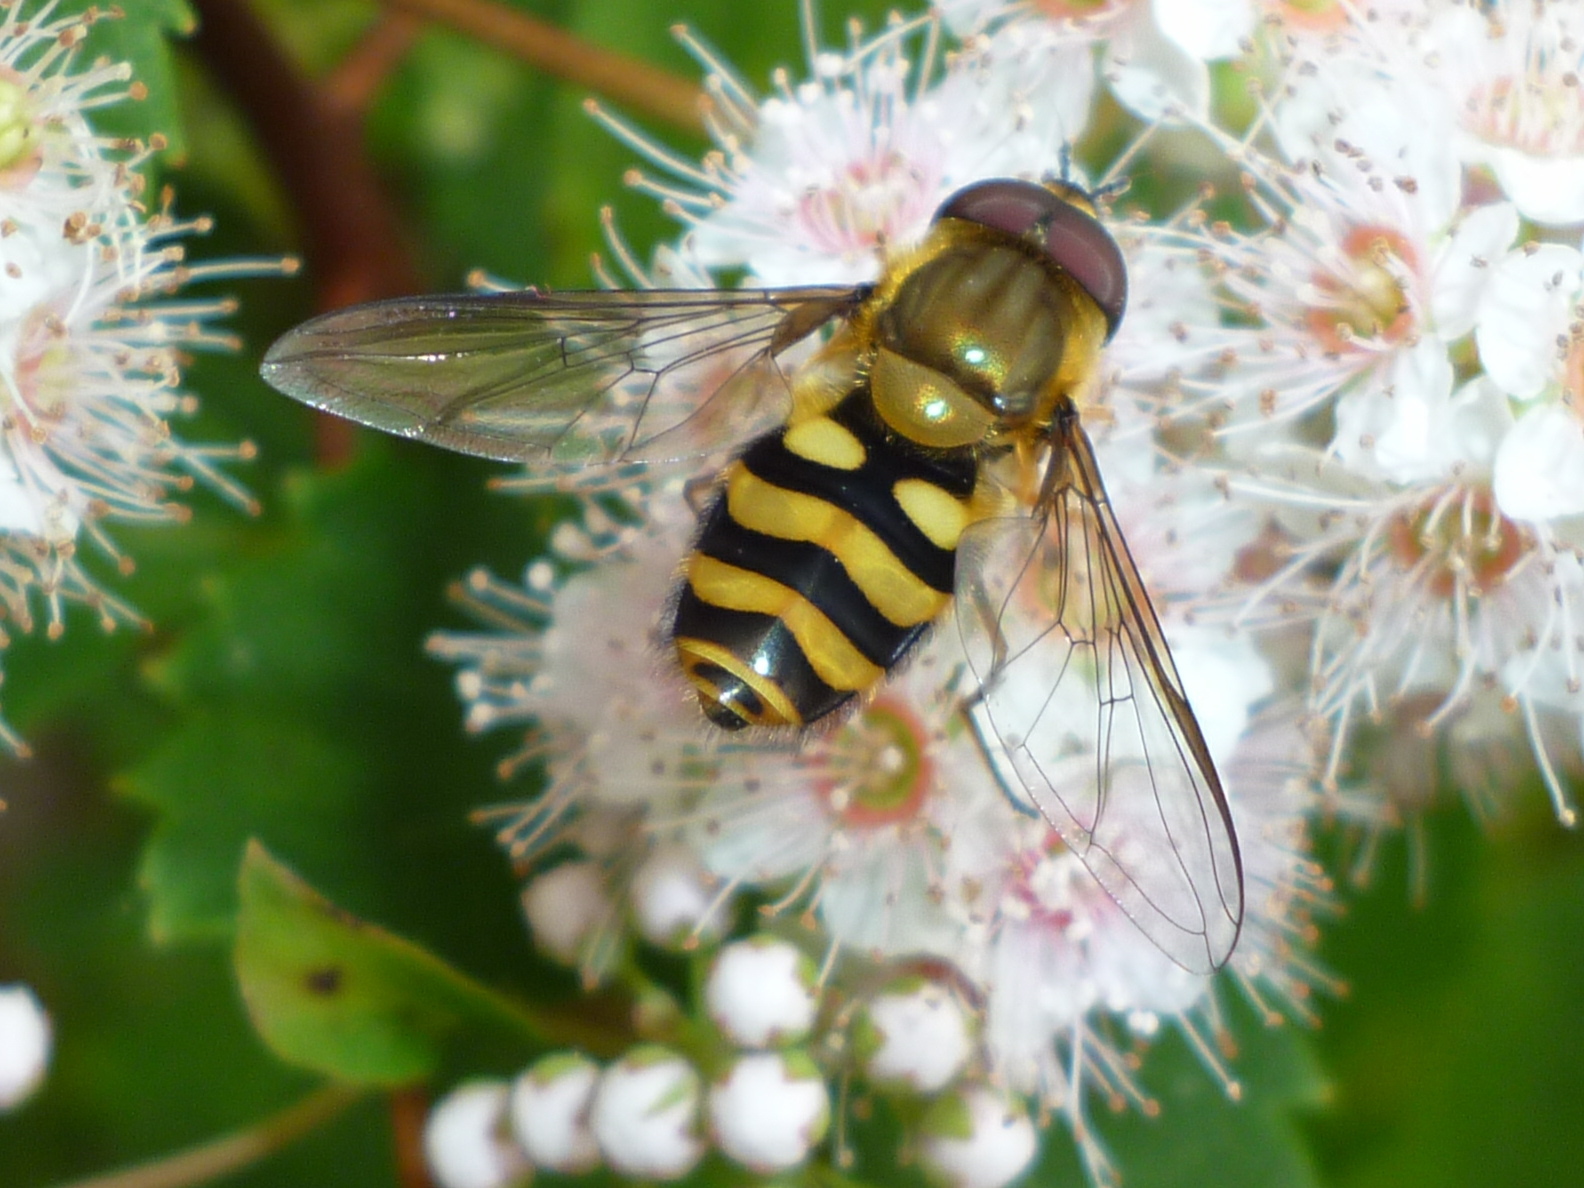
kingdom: Animalia
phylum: Arthropoda
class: Insecta
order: Diptera
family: Syrphidae
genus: Syrphus
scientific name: Syrphus
